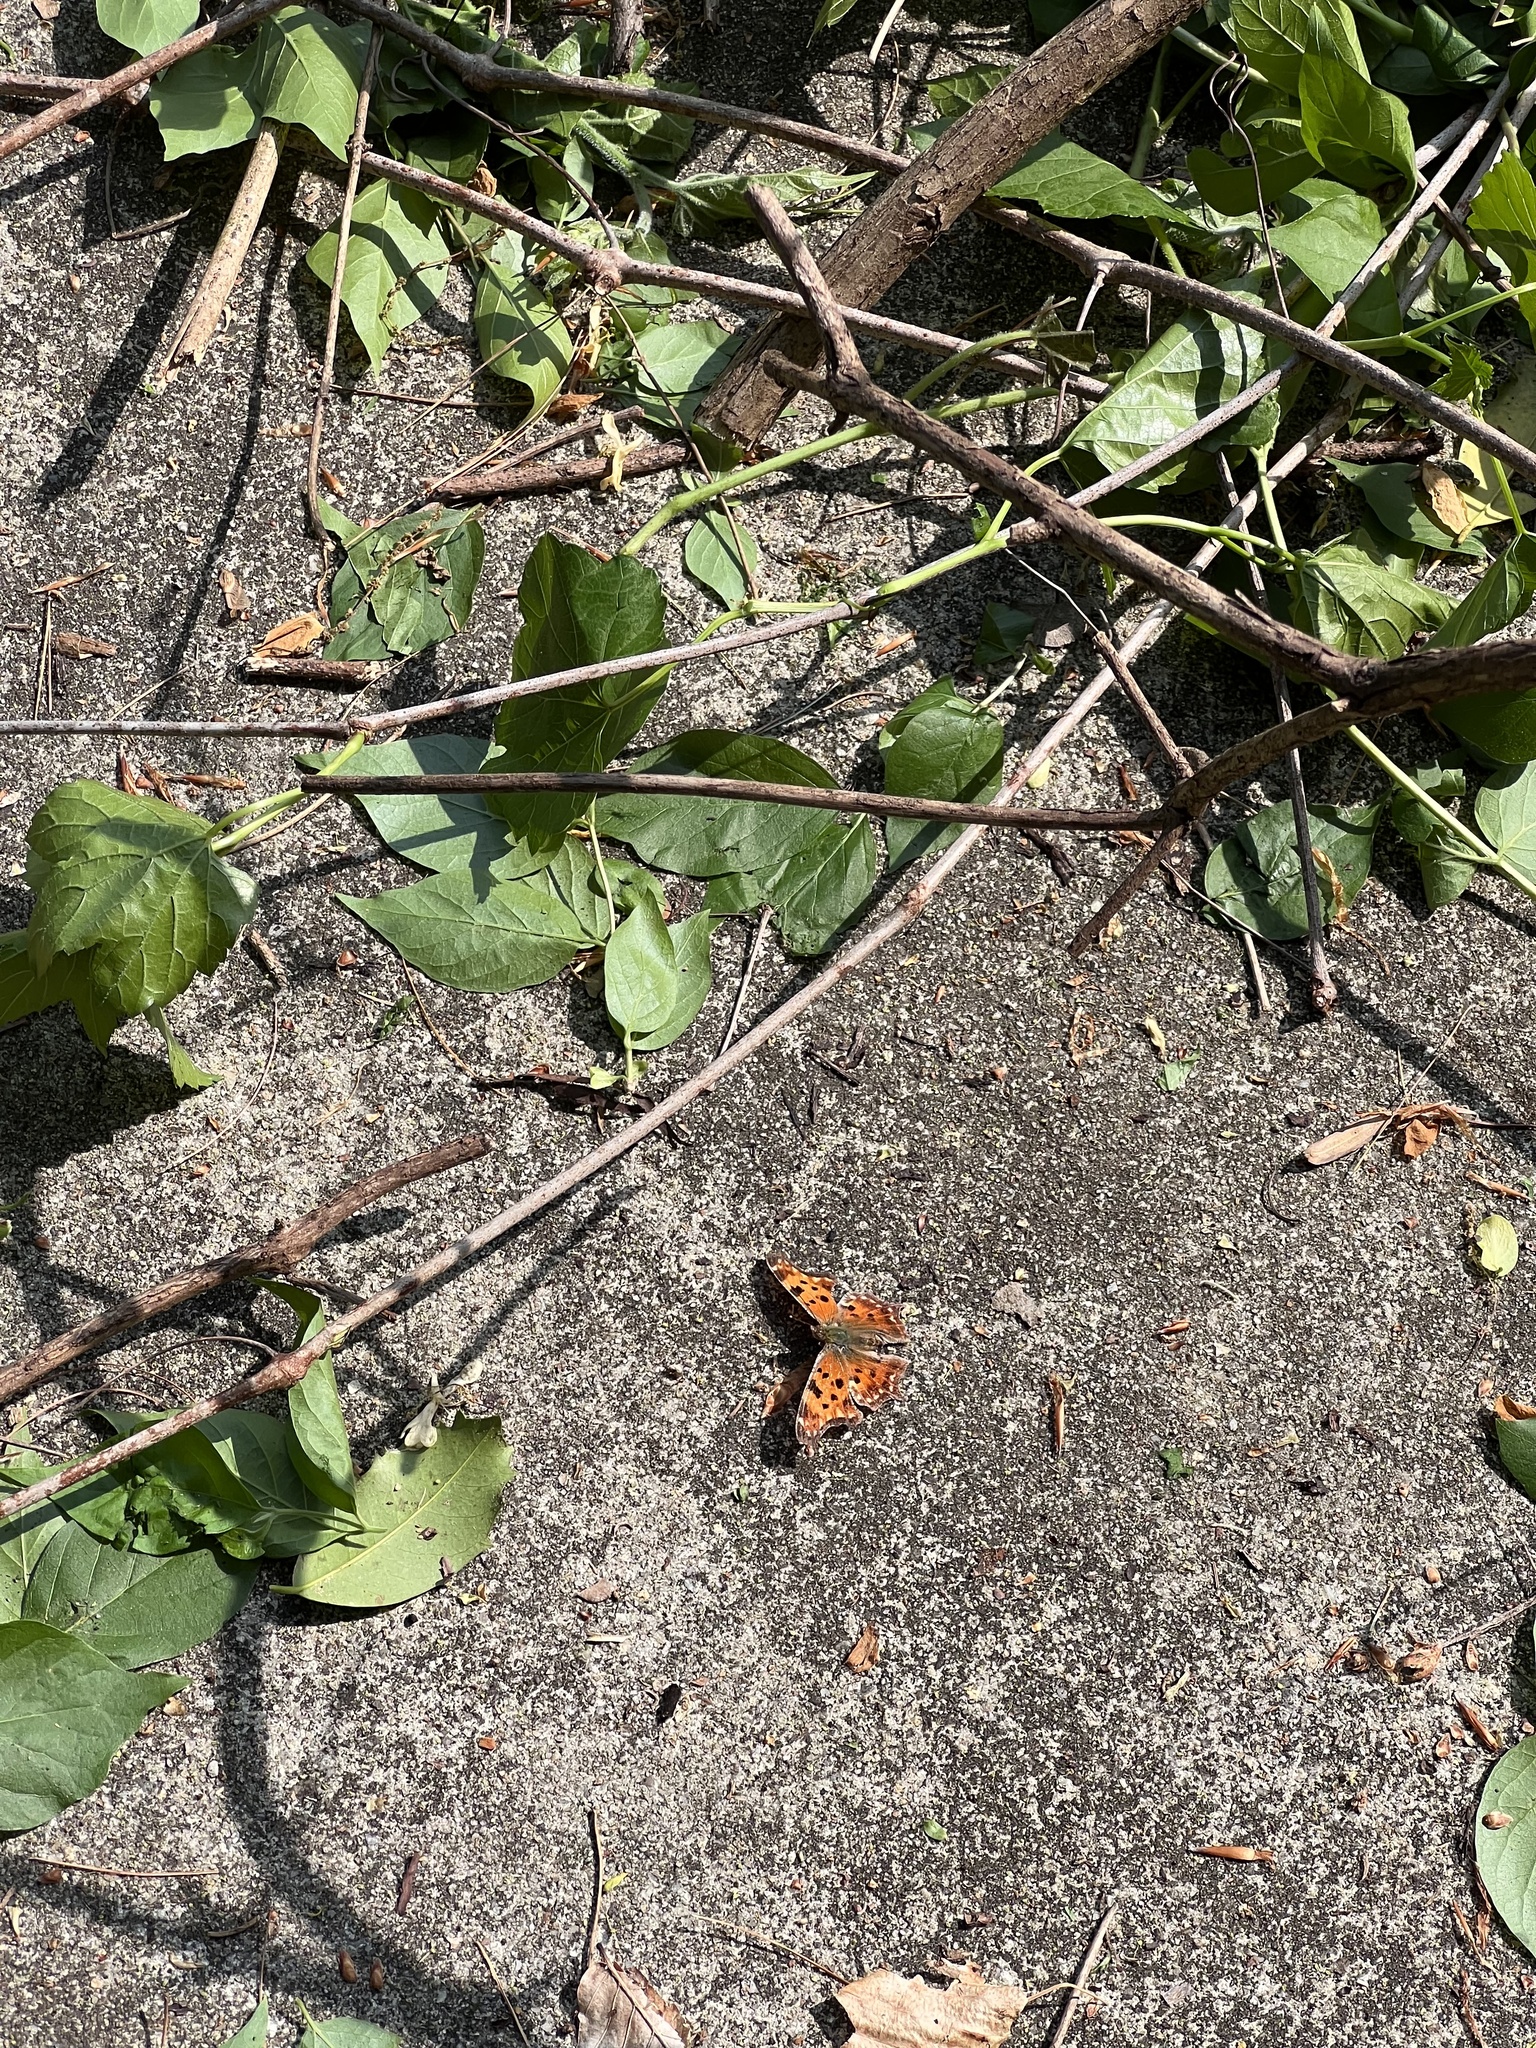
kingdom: Animalia
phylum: Arthropoda
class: Insecta
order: Lepidoptera
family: Nymphalidae
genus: Polygonia
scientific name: Polygonia comma
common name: Eastern comma
